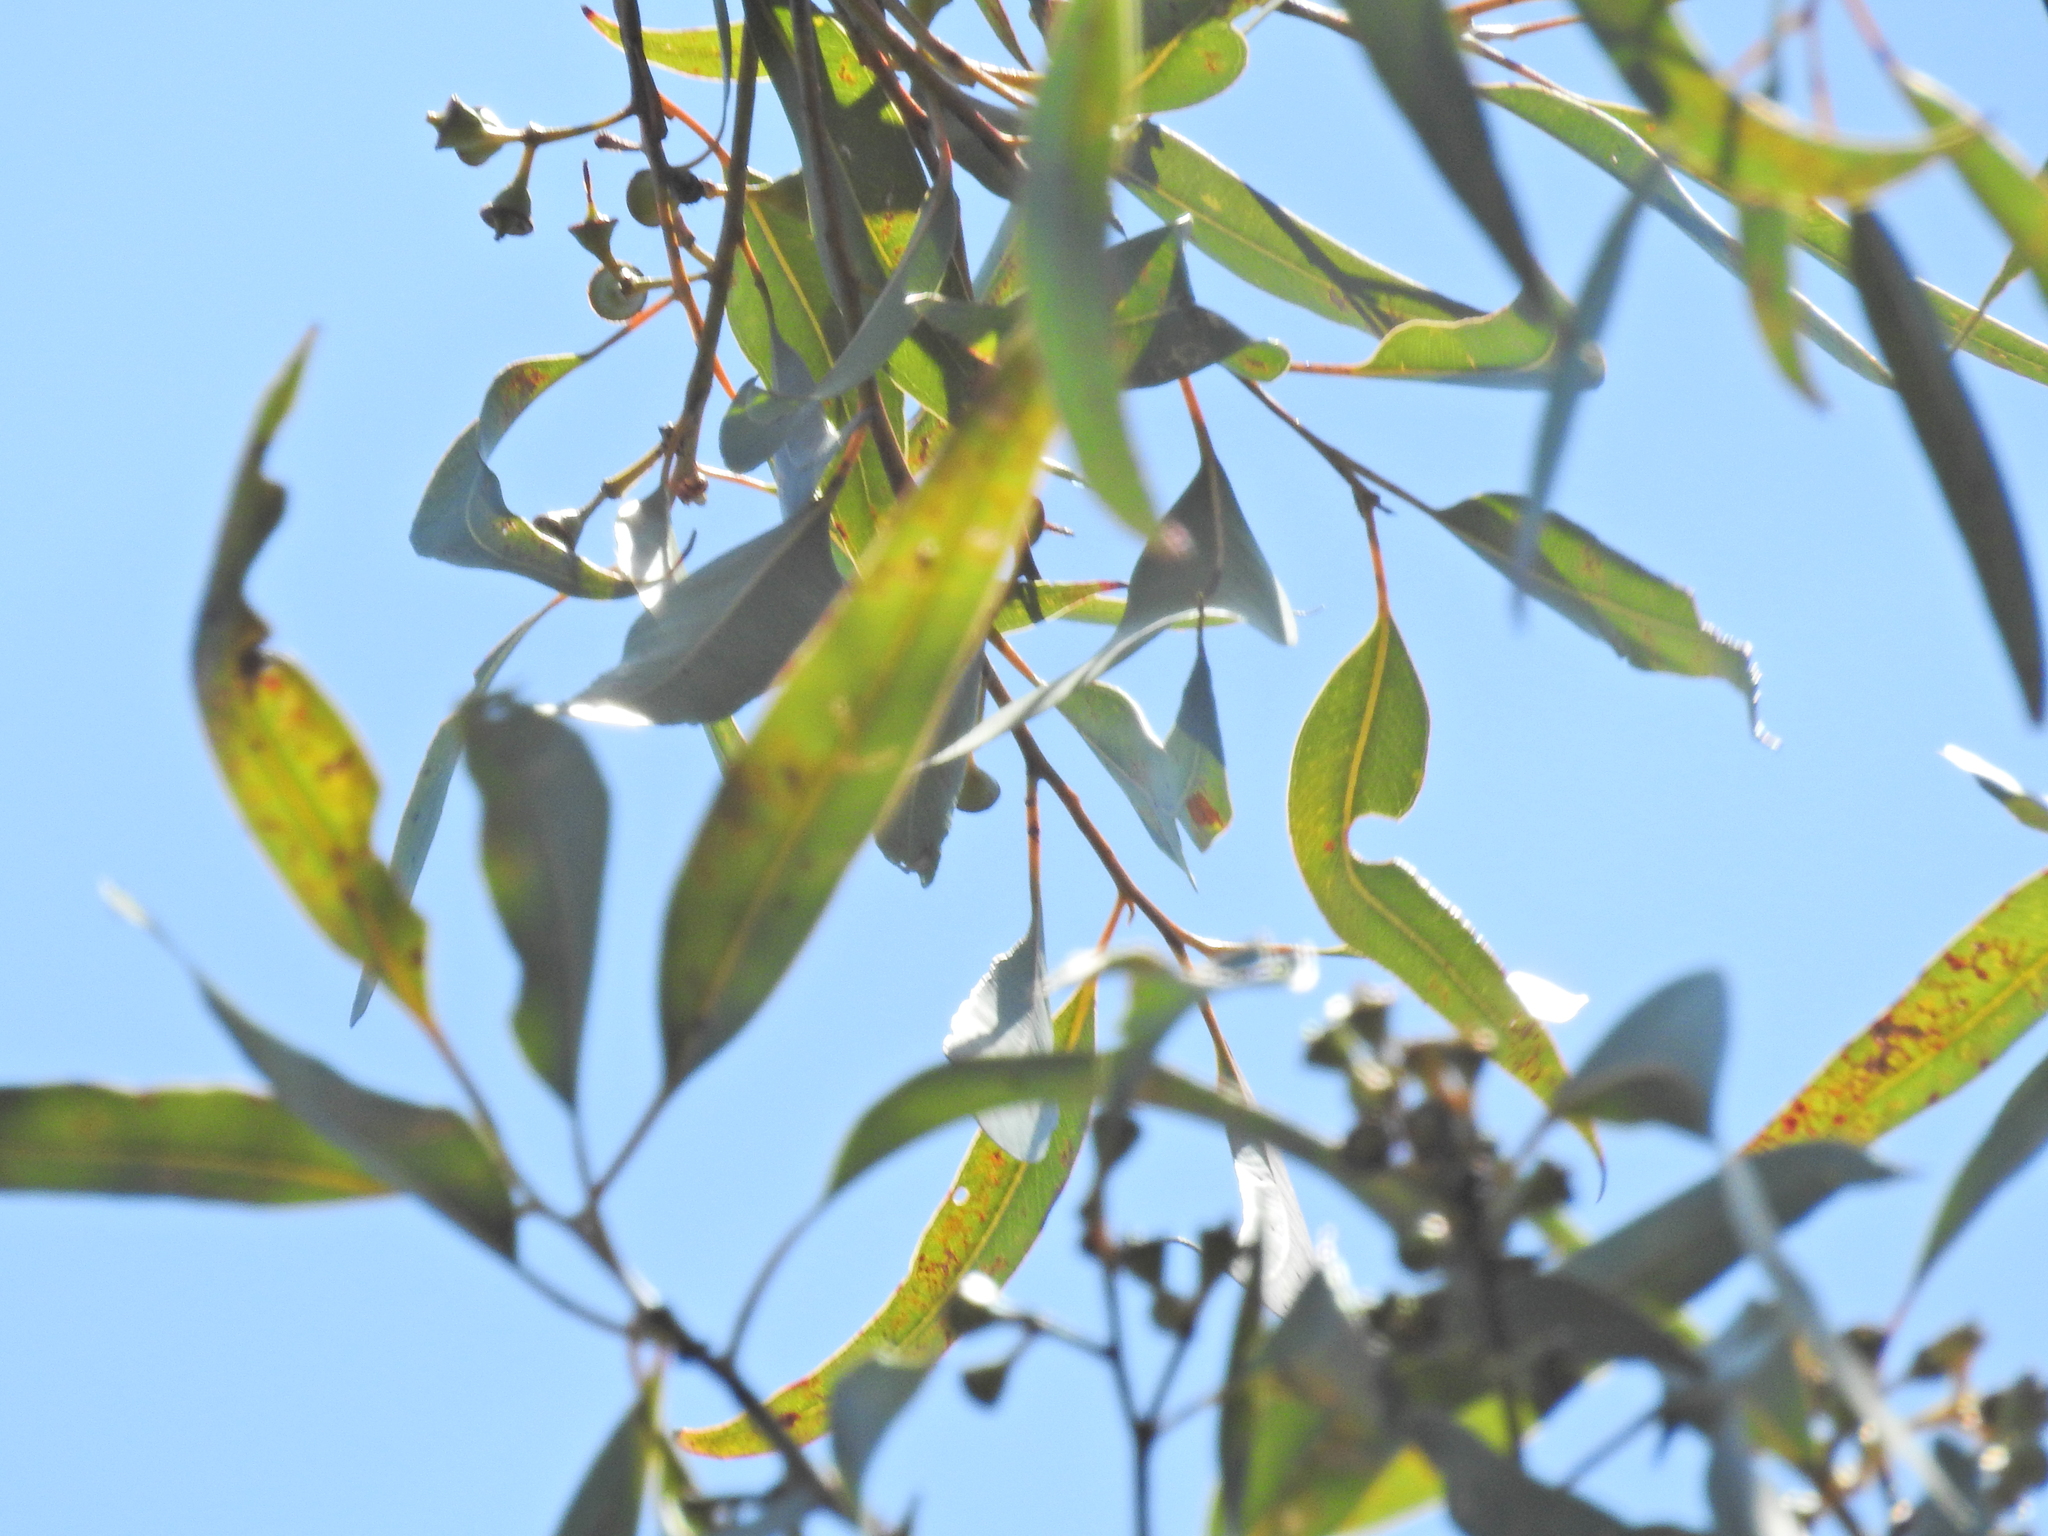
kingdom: Plantae
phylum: Tracheophyta
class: Magnoliopsida
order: Myrtales
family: Myrtaceae
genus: Eucalyptus
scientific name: Eucalyptus resinifera
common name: Red-mahogany
